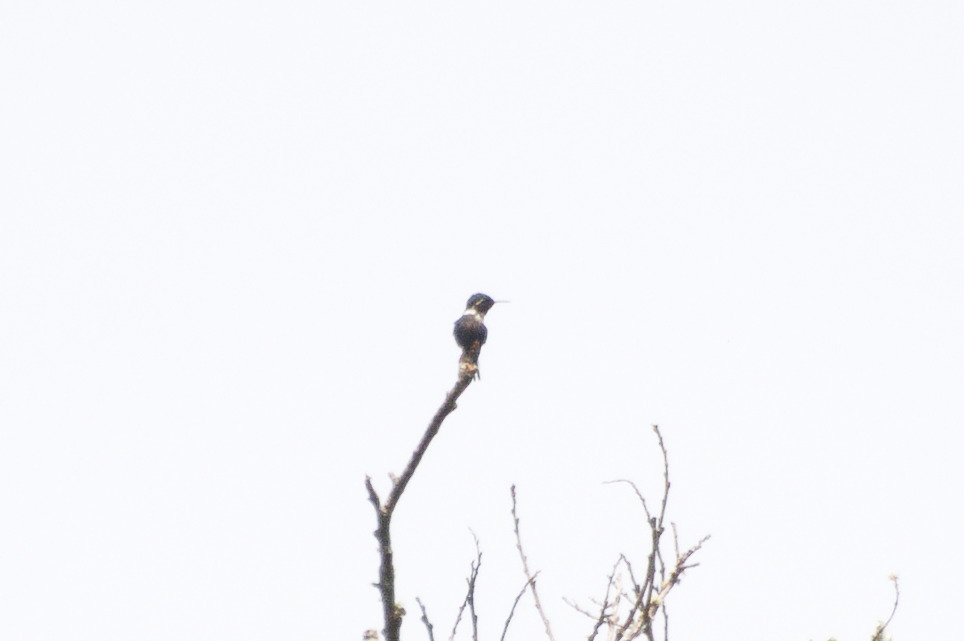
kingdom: Animalia
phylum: Chordata
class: Aves
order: Apodiformes
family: Trochilidae
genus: Chaetocercus
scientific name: Chaetocercus astreans
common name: Santa marta woodstar
